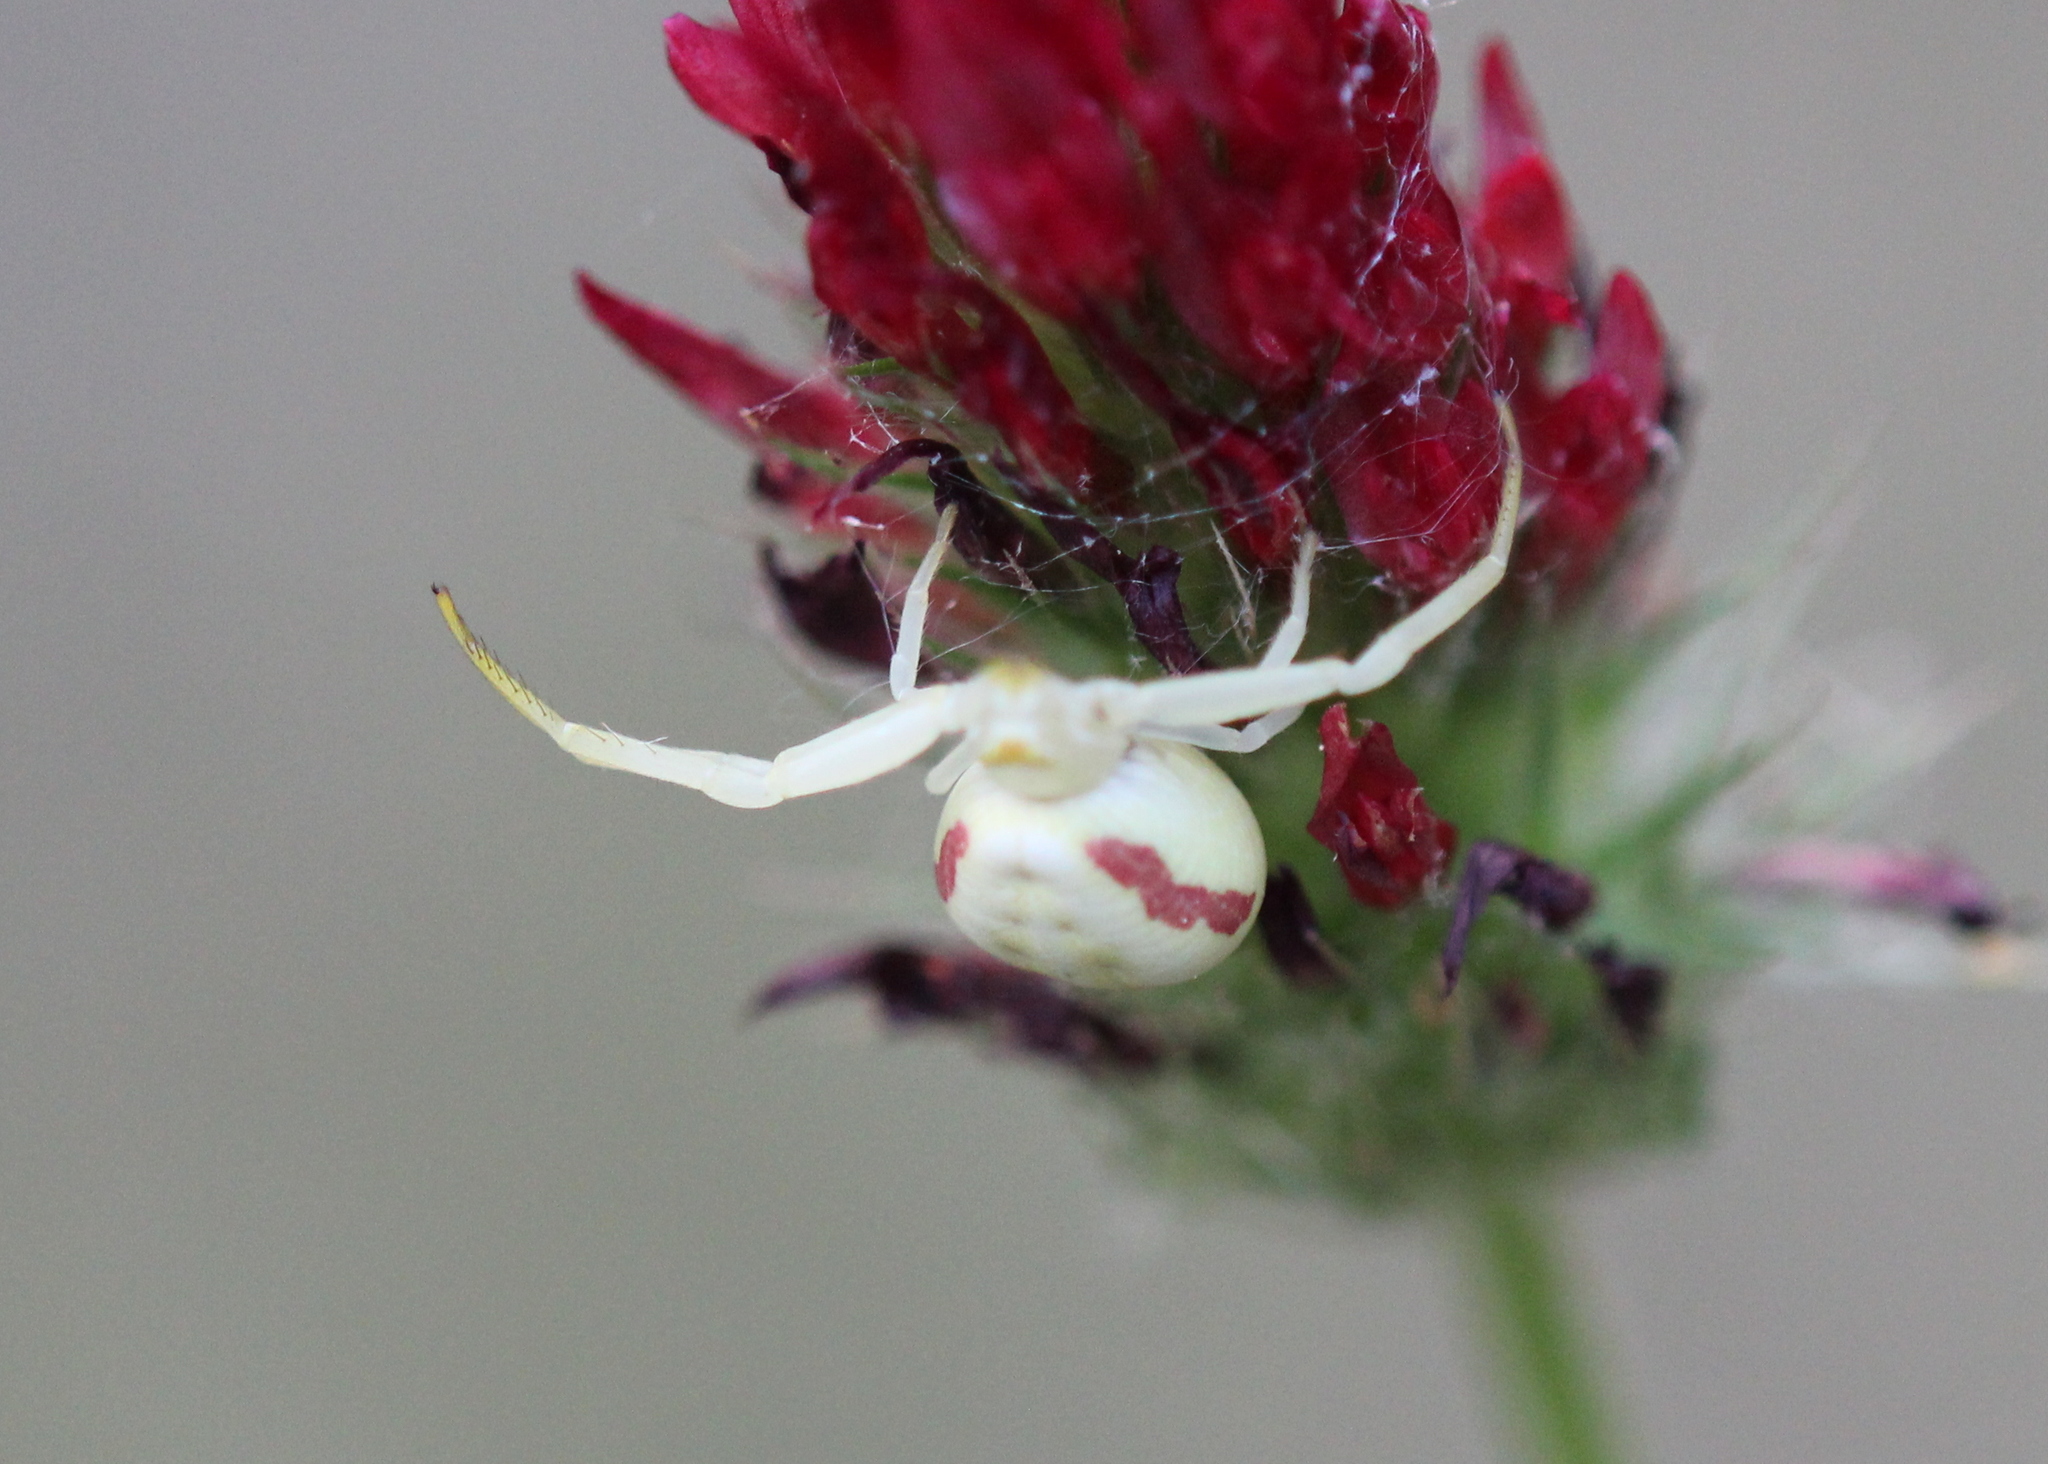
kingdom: Animalia
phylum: Arthropoda
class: Arachnida
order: Araneae
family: Thomisidae
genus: Misumena
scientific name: Misumena vatia
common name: Goldenrod crab spider
